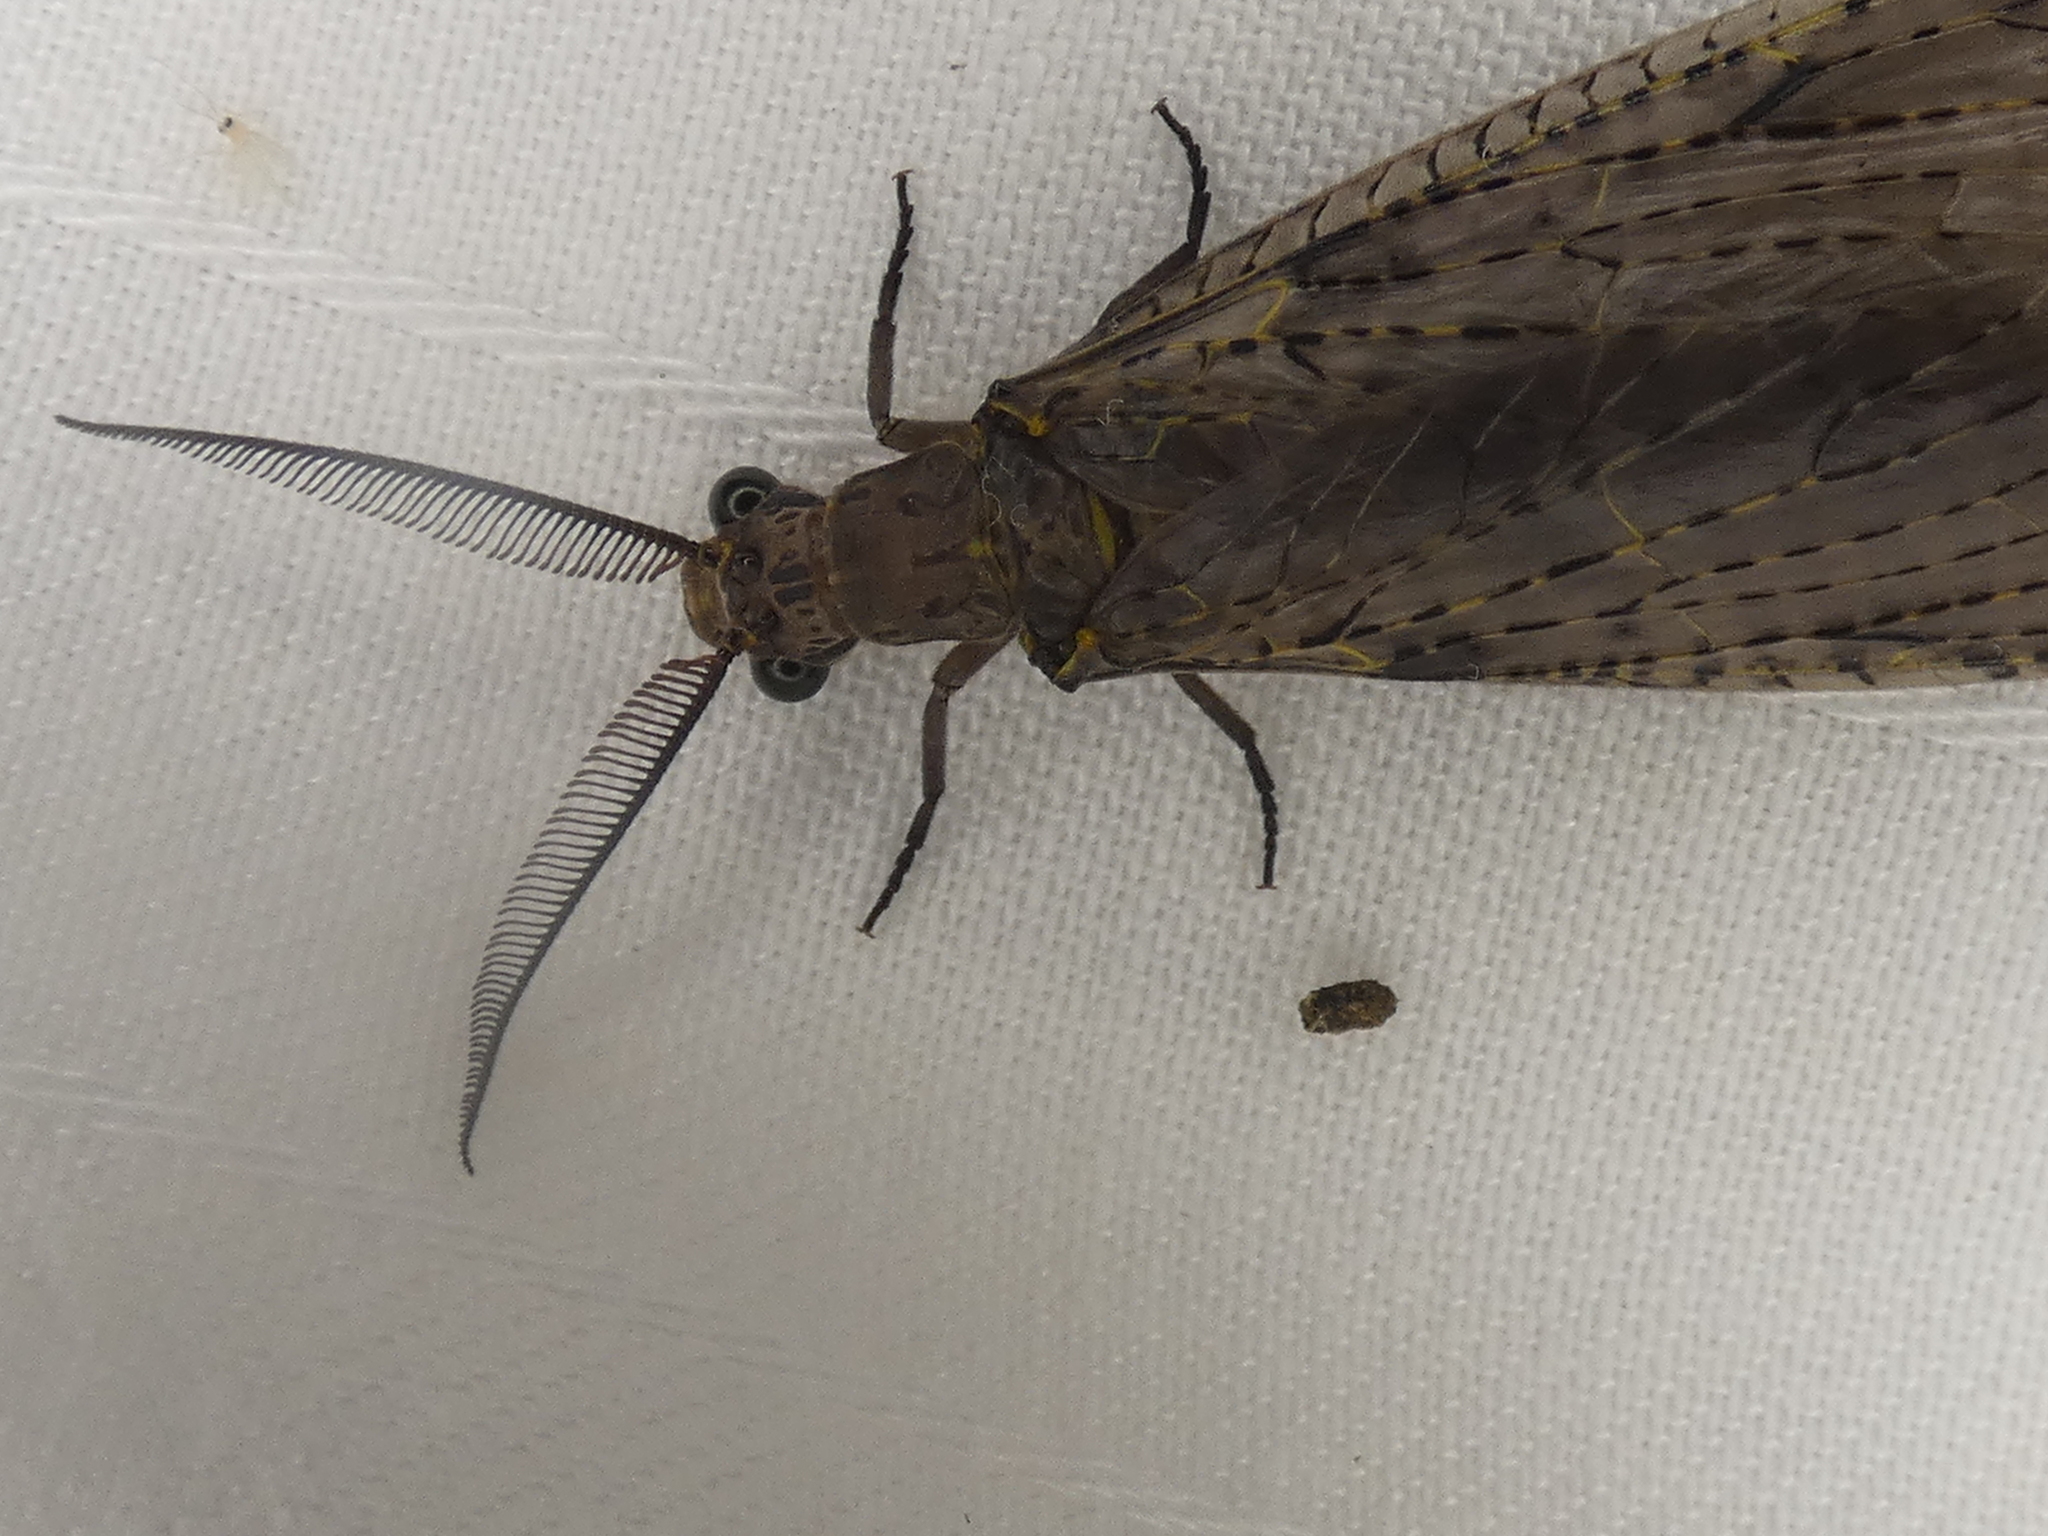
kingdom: Animalia
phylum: Arthropoda
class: Insecta
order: Megaloptera
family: Corydalidae
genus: Chauliodes
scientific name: Chauliodes rastricornis
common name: Spring fishfly
